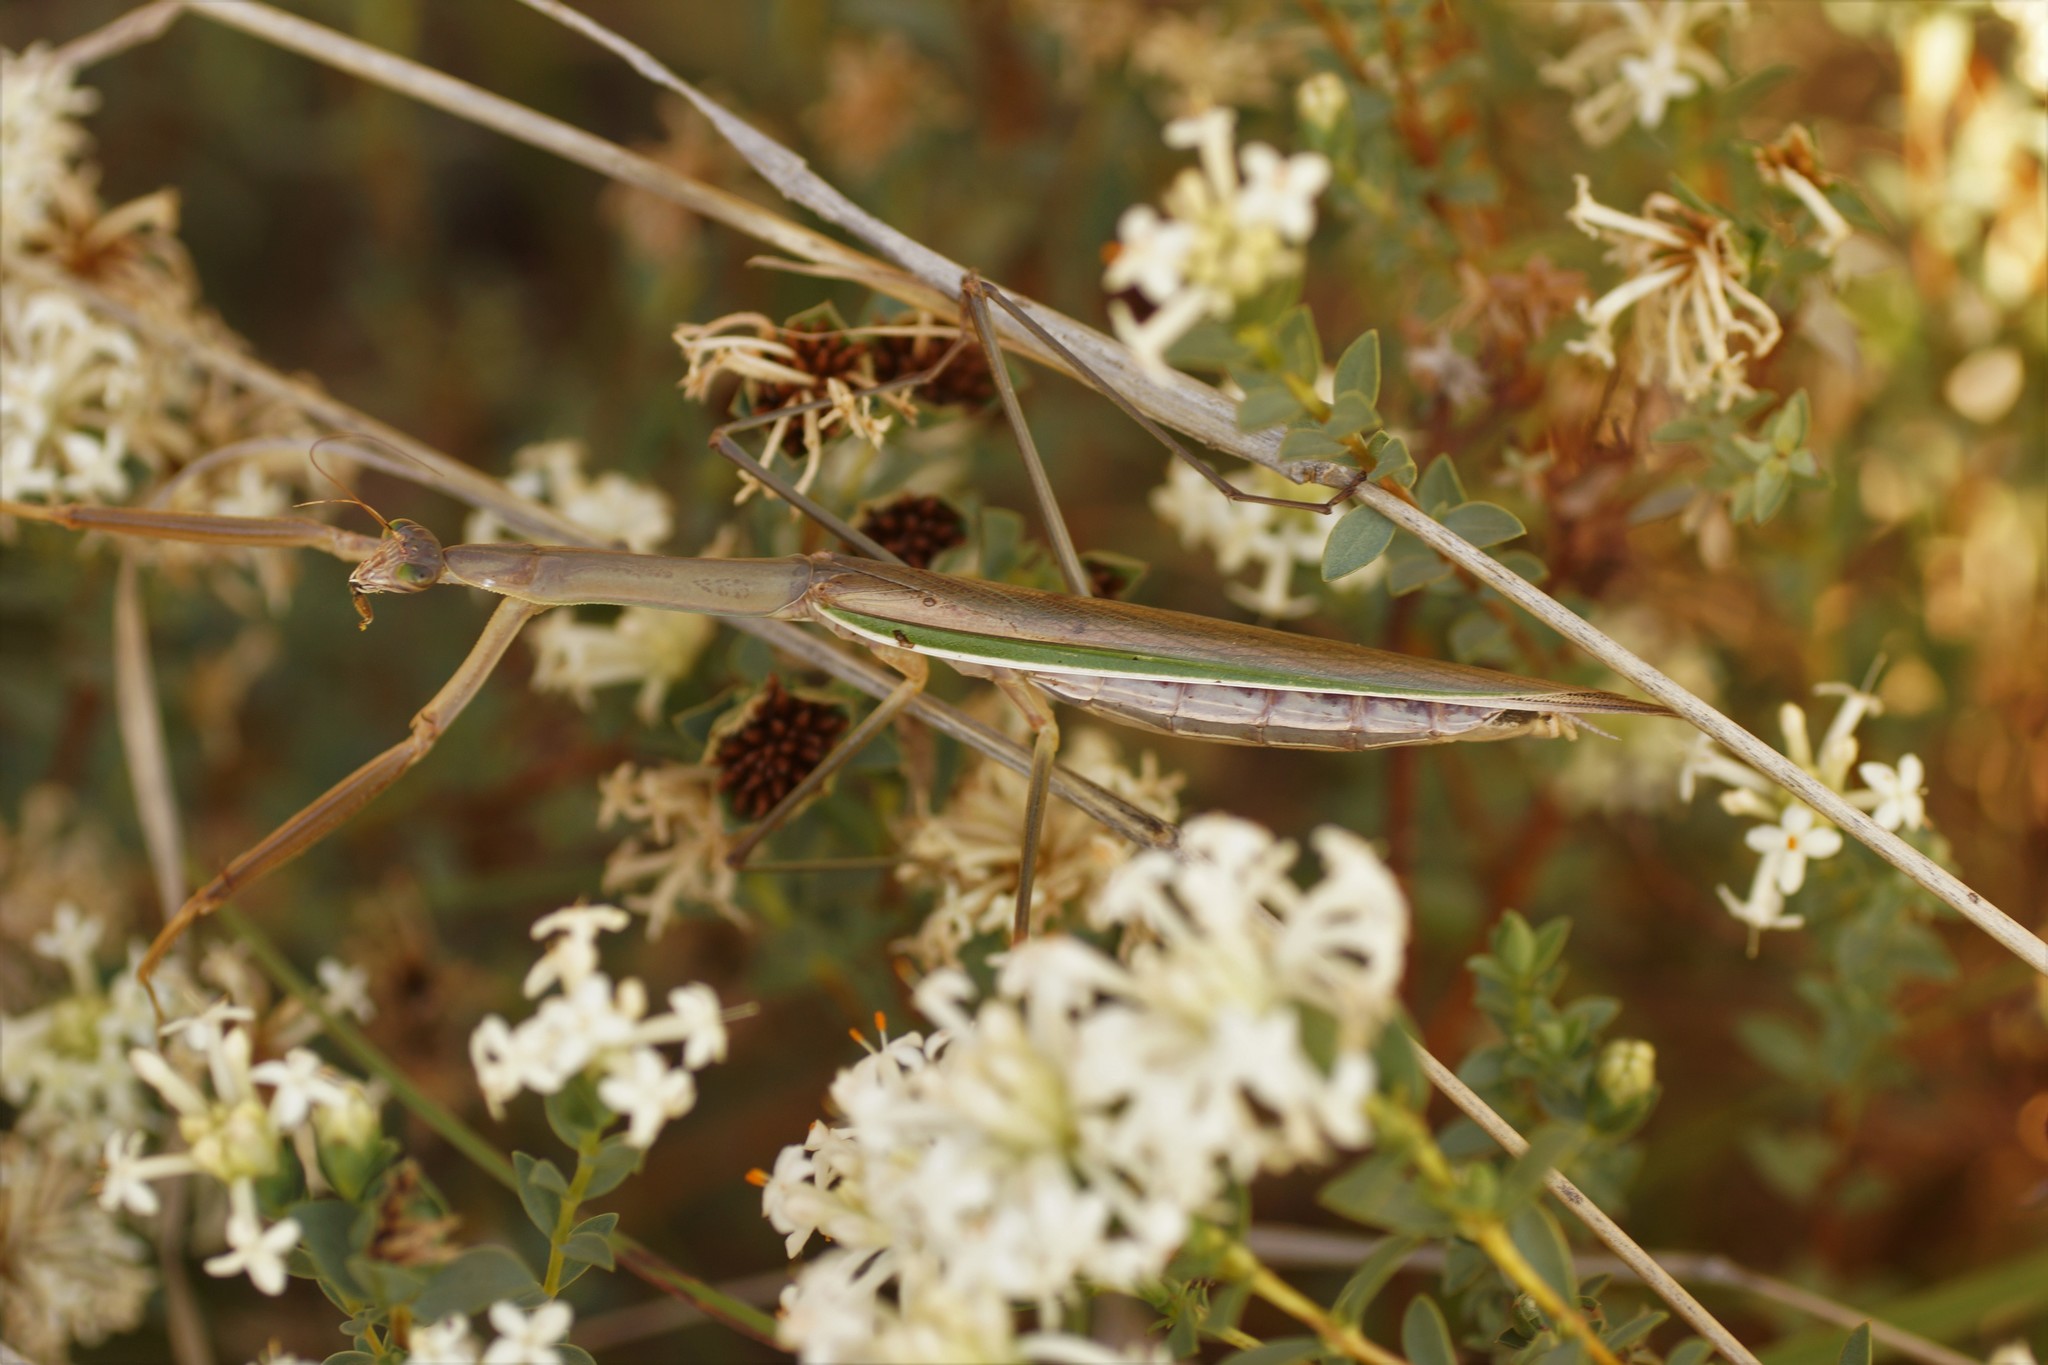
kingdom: Animalia
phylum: Arthropoda
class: Insecta
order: Mantodea
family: Mantidae
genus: Tenodera
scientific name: Tenodera australasiae
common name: Purple-winged mantis
